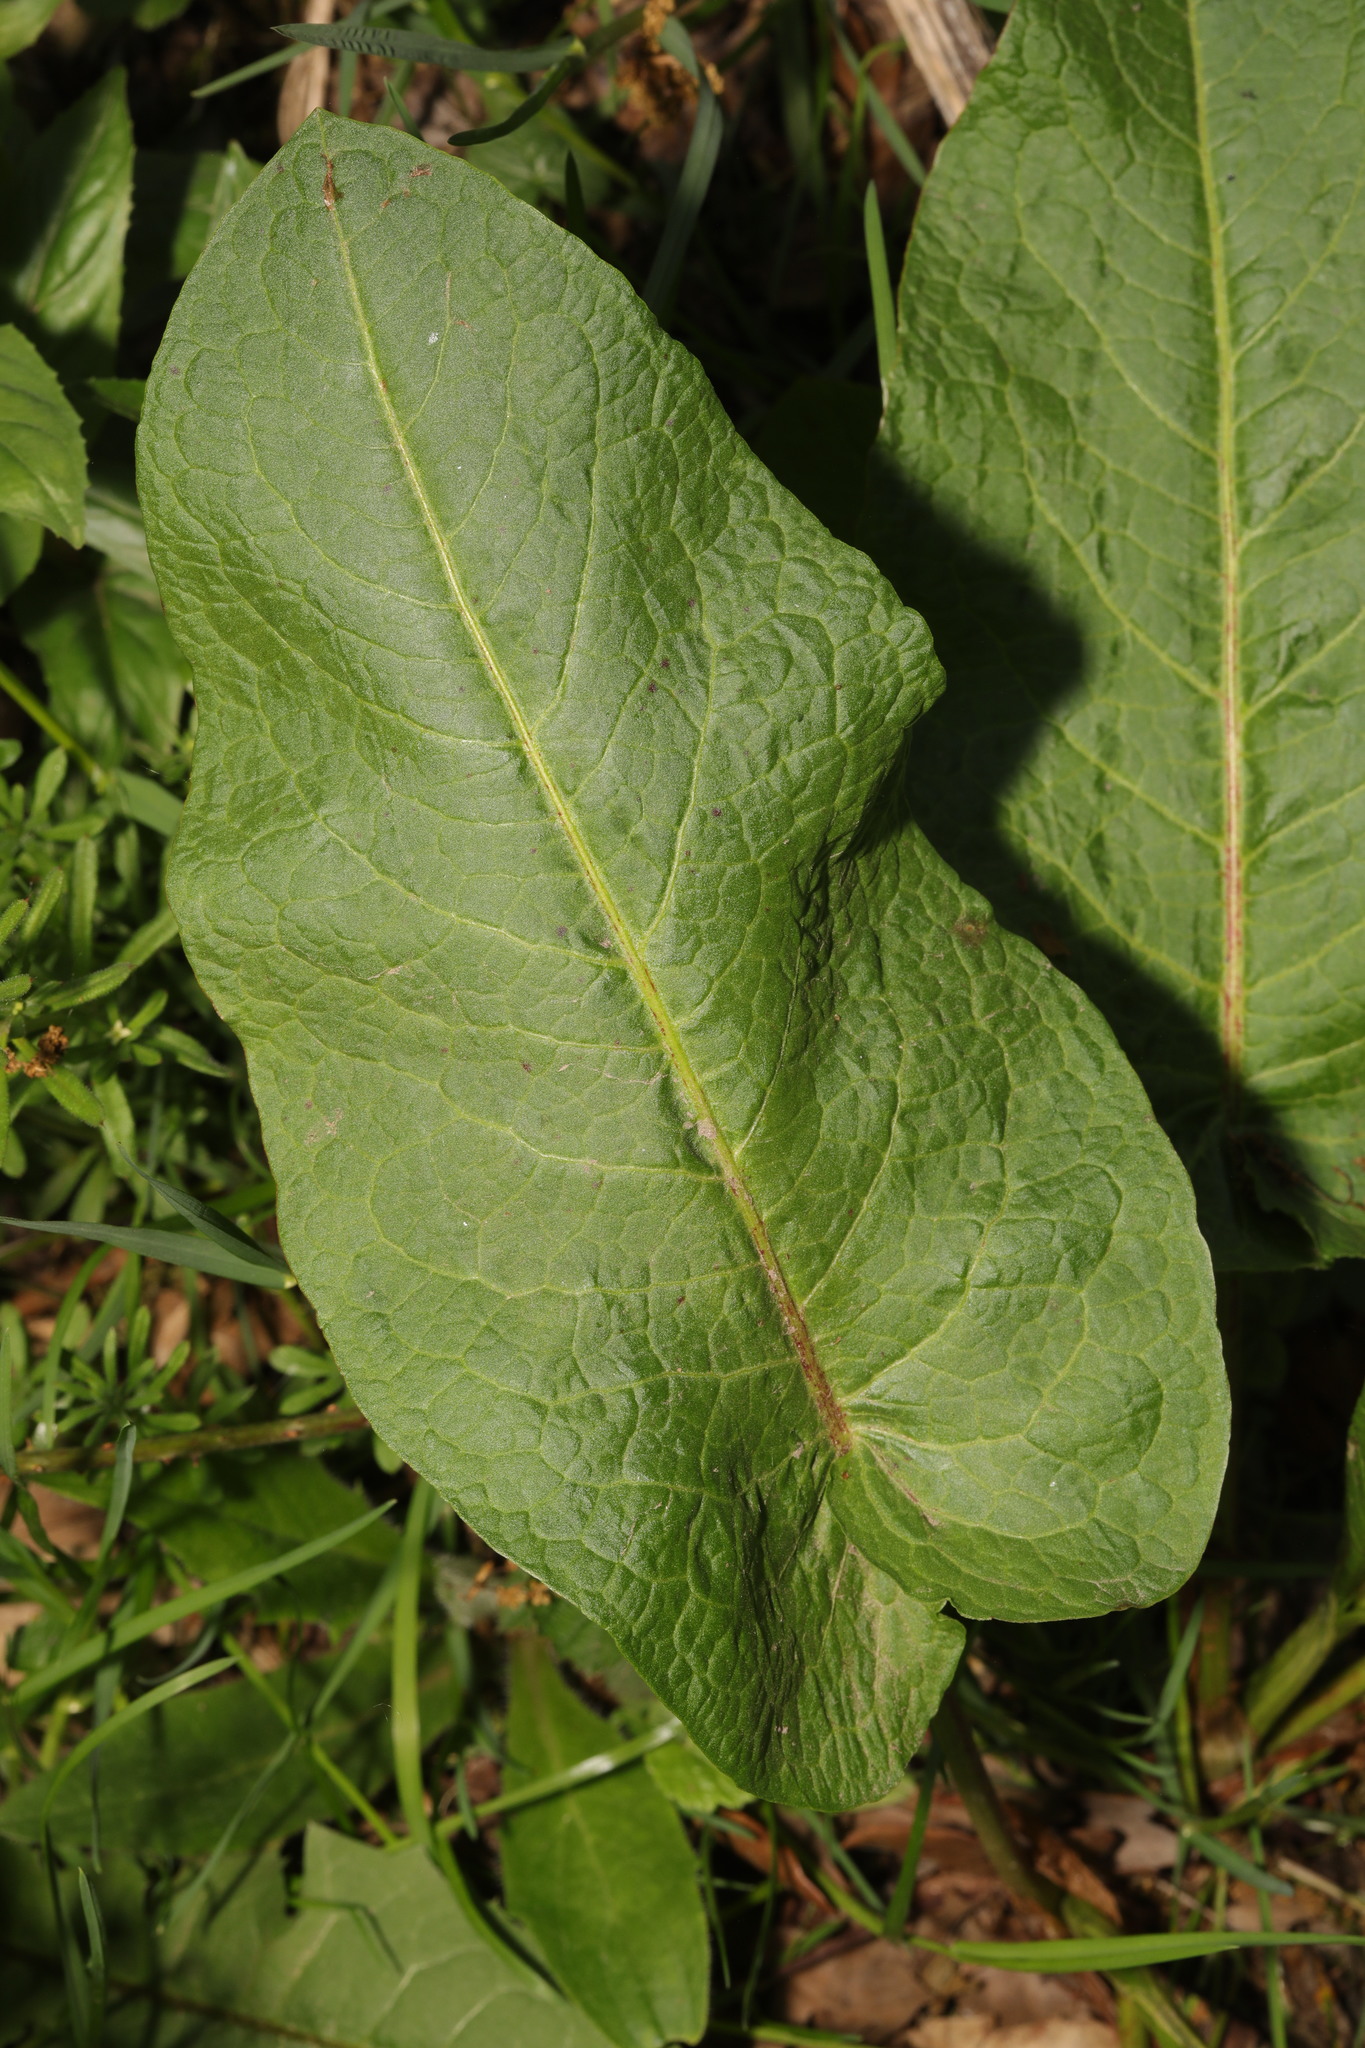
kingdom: Plantae
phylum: Tracheophyta
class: Magnoliopsida
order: Caryophyllales
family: Polygonaceae
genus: Rumex
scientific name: Rumex obtusifolius
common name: Bitter dock
